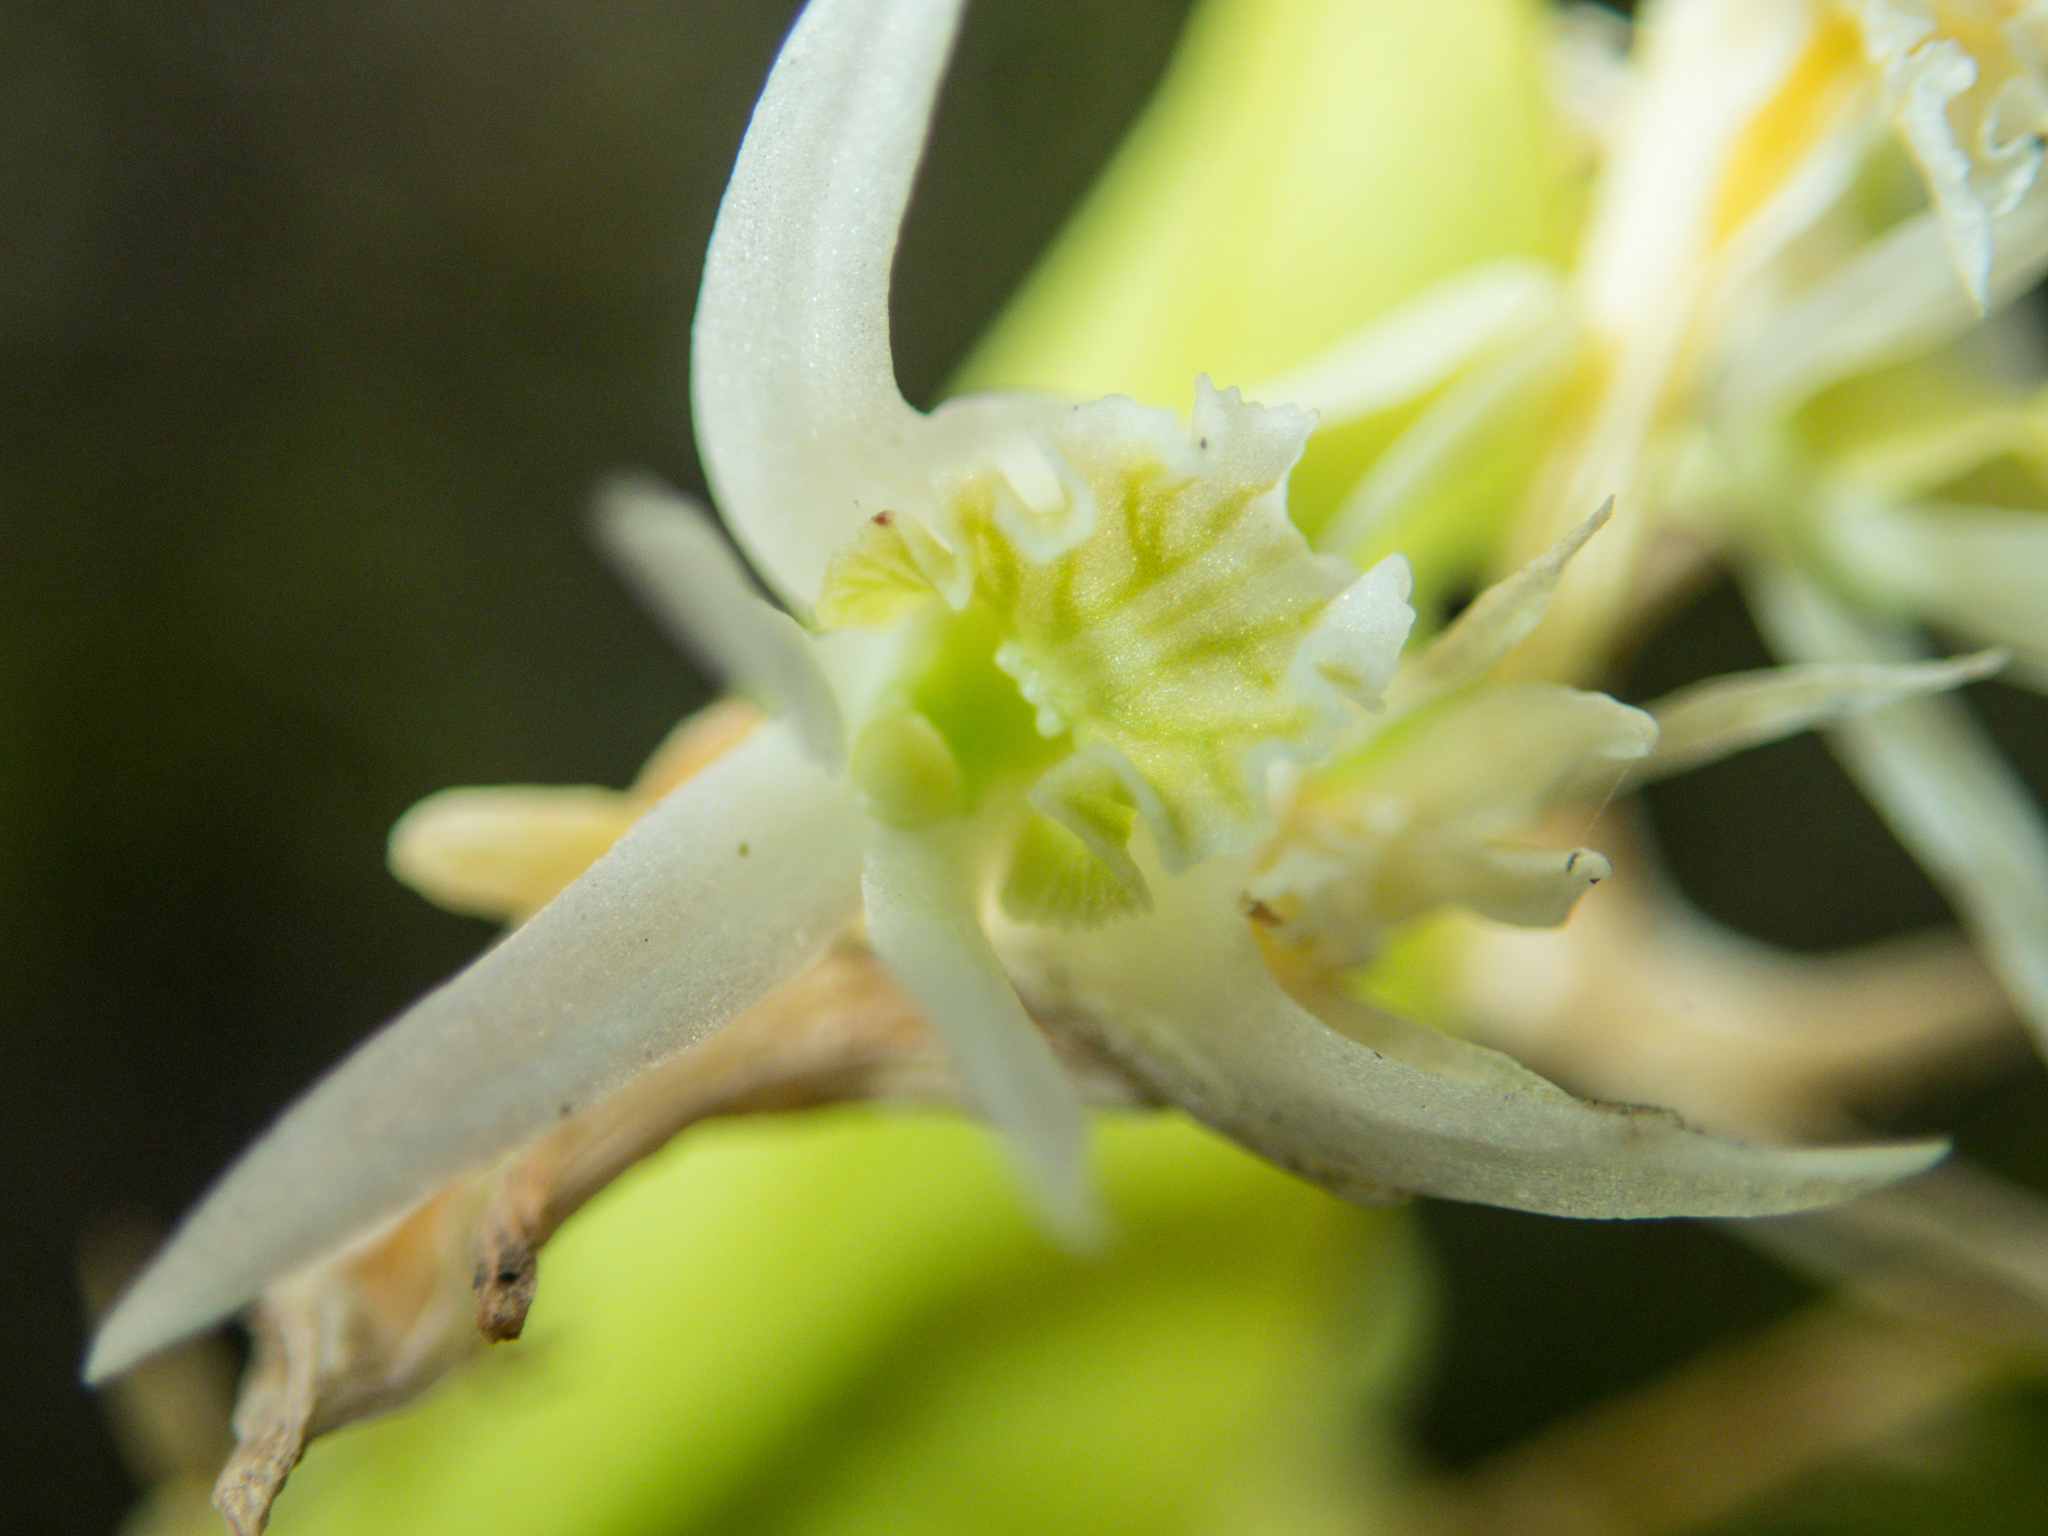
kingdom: Plantae
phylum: Tracheophyta
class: Liliopsida
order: Asparagales
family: Orchidaceae
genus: Dendrobium
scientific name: Dendrobium kratense
